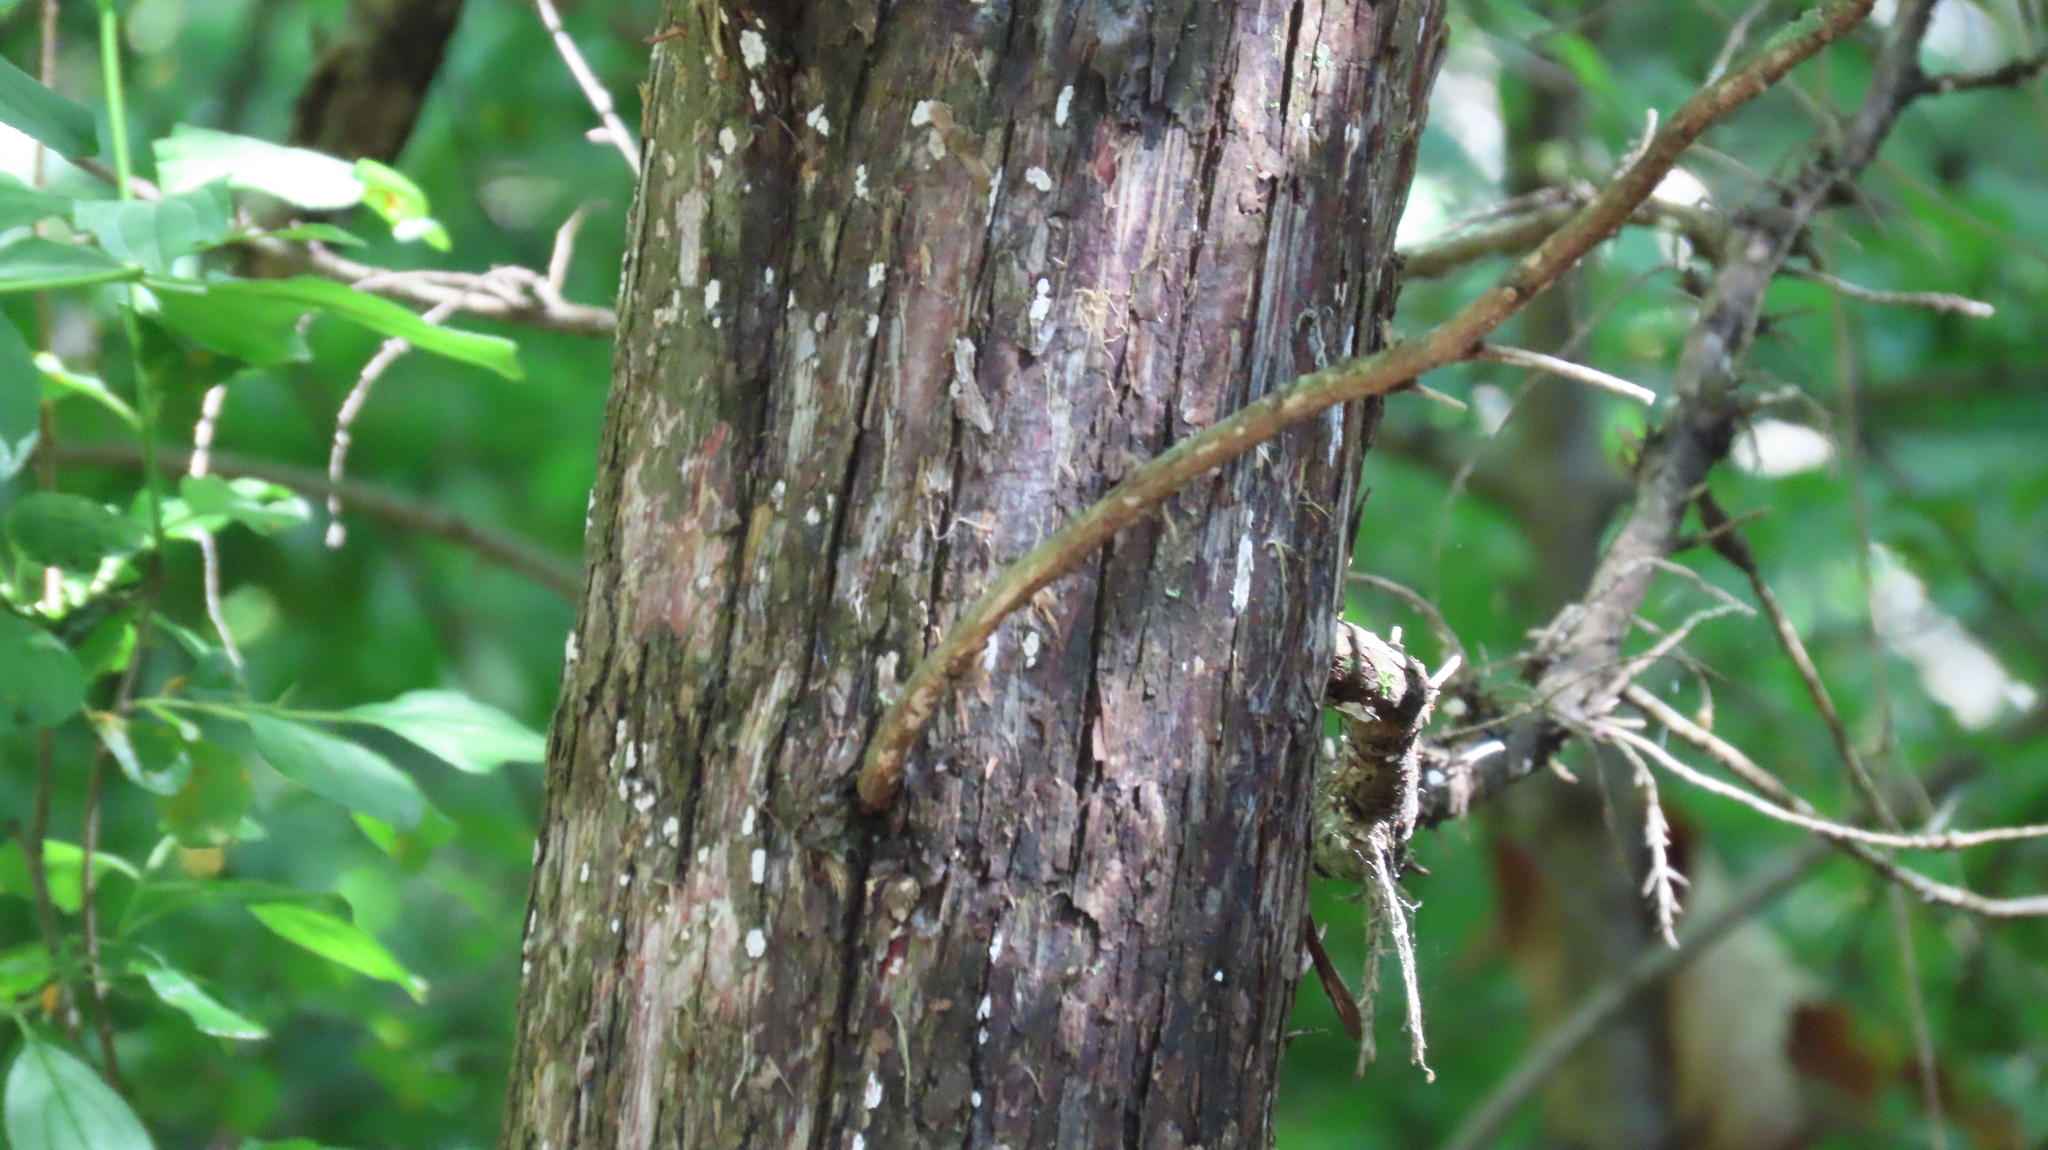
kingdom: Plantae
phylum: Tracheophyta
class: Pinopsida
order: Pinales
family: Cupressaceae
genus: Juniperus
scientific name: Juniperus virginiana
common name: Red juniper
